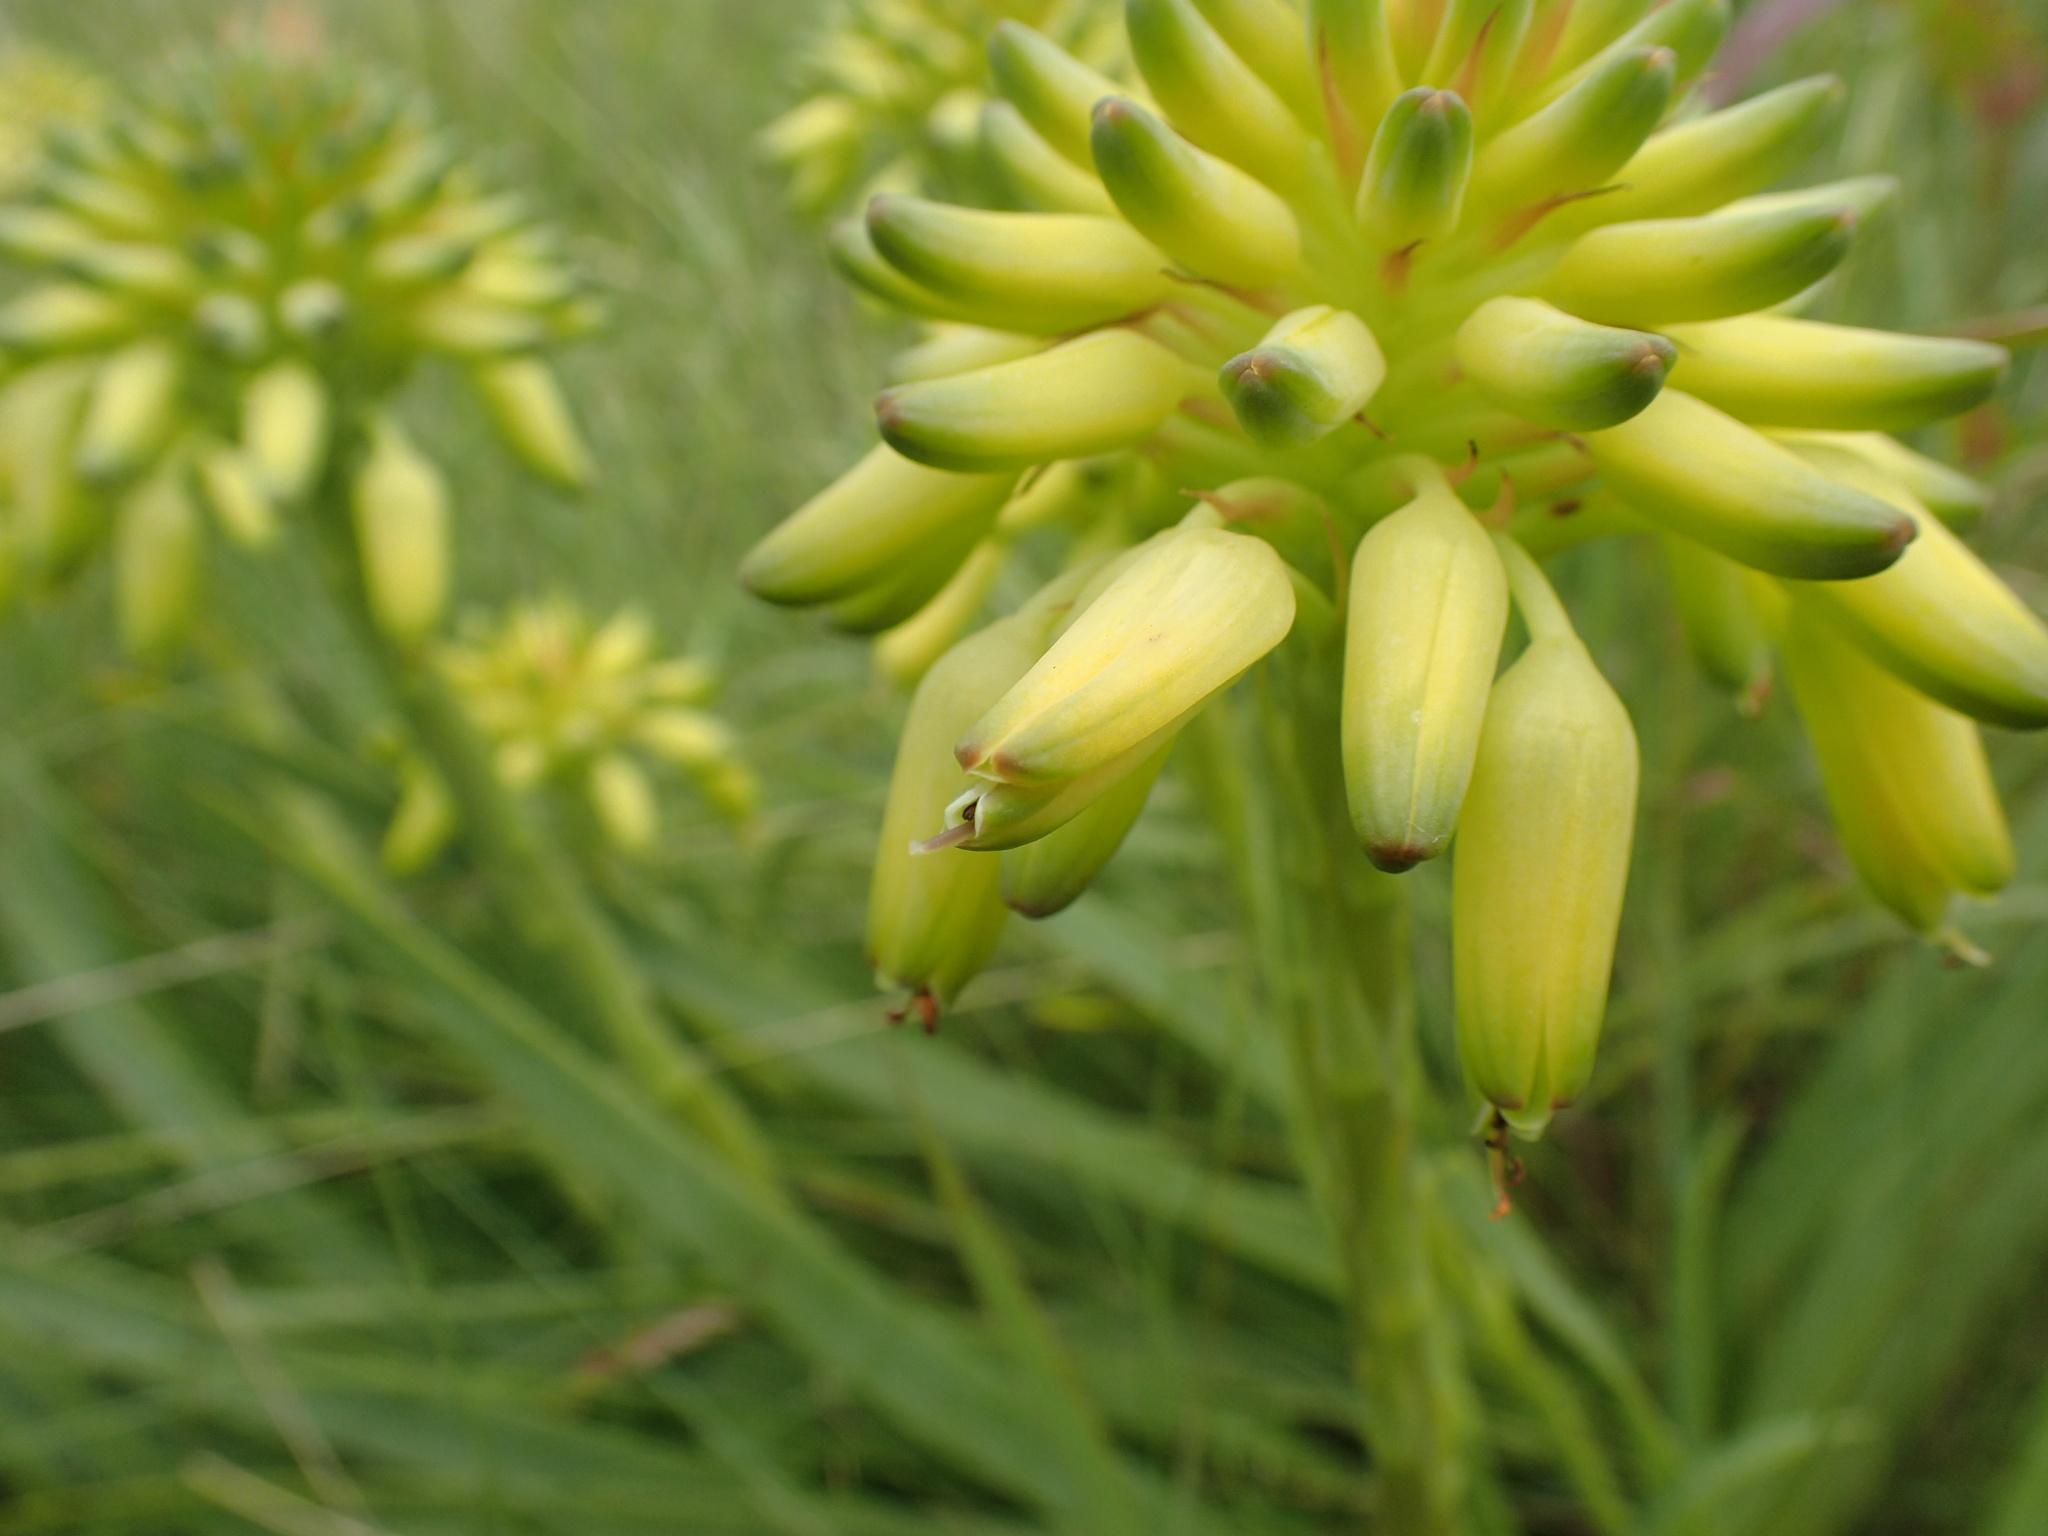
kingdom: Plantae
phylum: Tracheophyta
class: Liliopsida
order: Asparagales
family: Asphodelaceae
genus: Aloe
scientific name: Aloe linearifolia
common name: Dwarf yellow grass aloe
